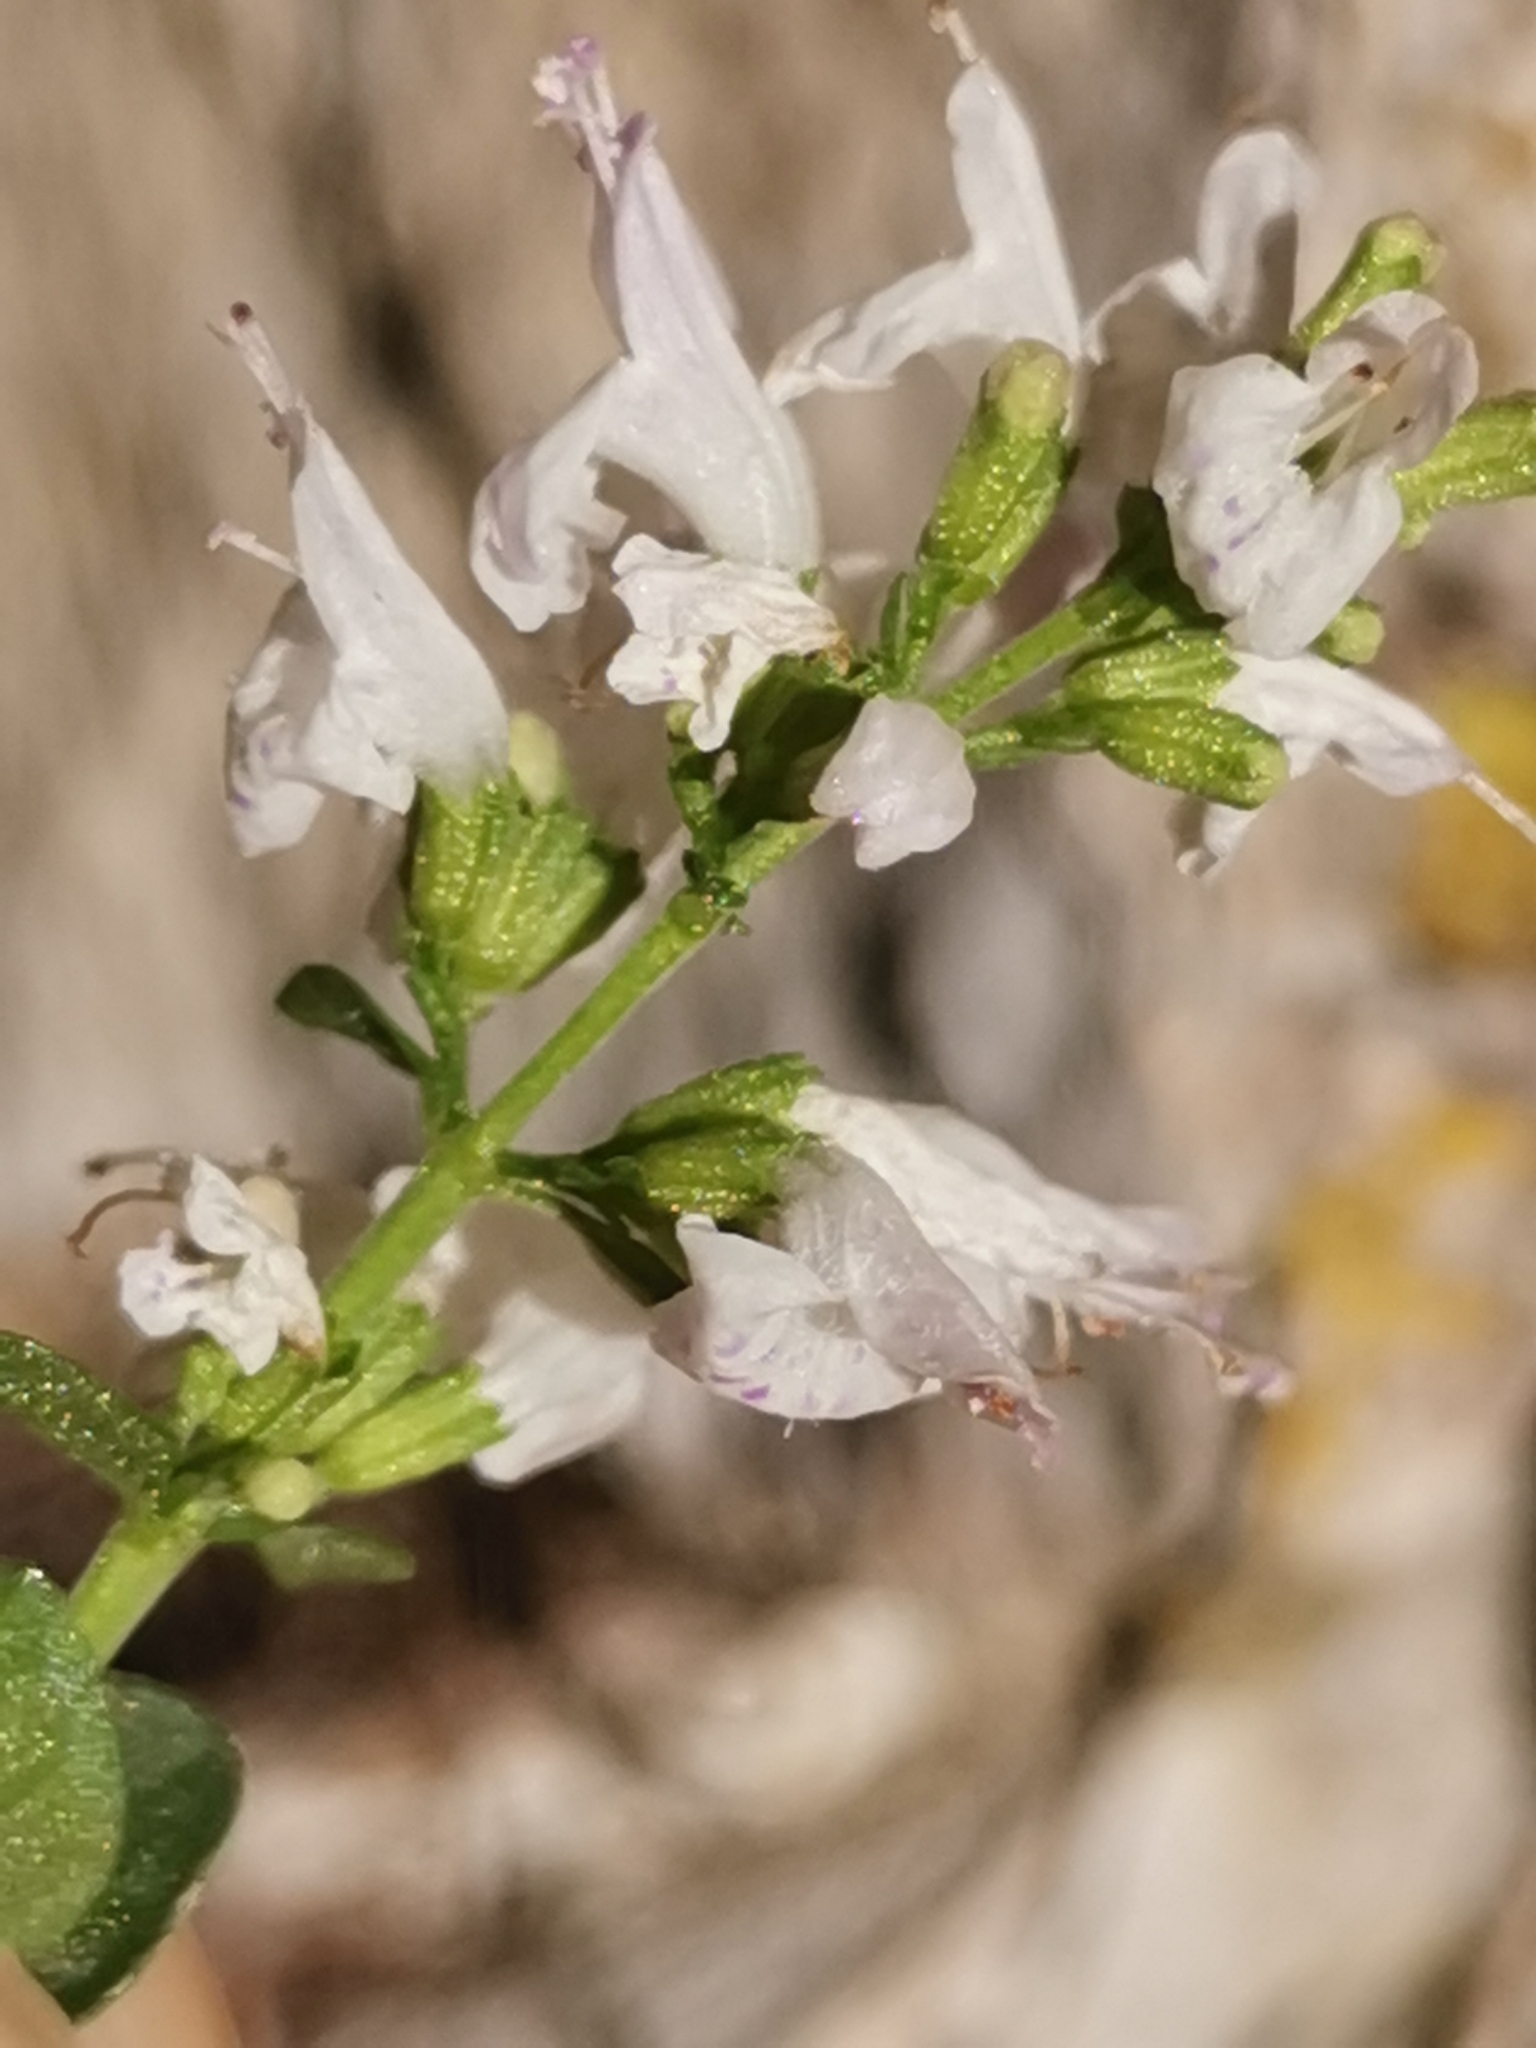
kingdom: Plantae
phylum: Tracheophyta
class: Magnoliopsida
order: Lamiales
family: Lamiaceae
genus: Clinopodium
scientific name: Clinopodium album
